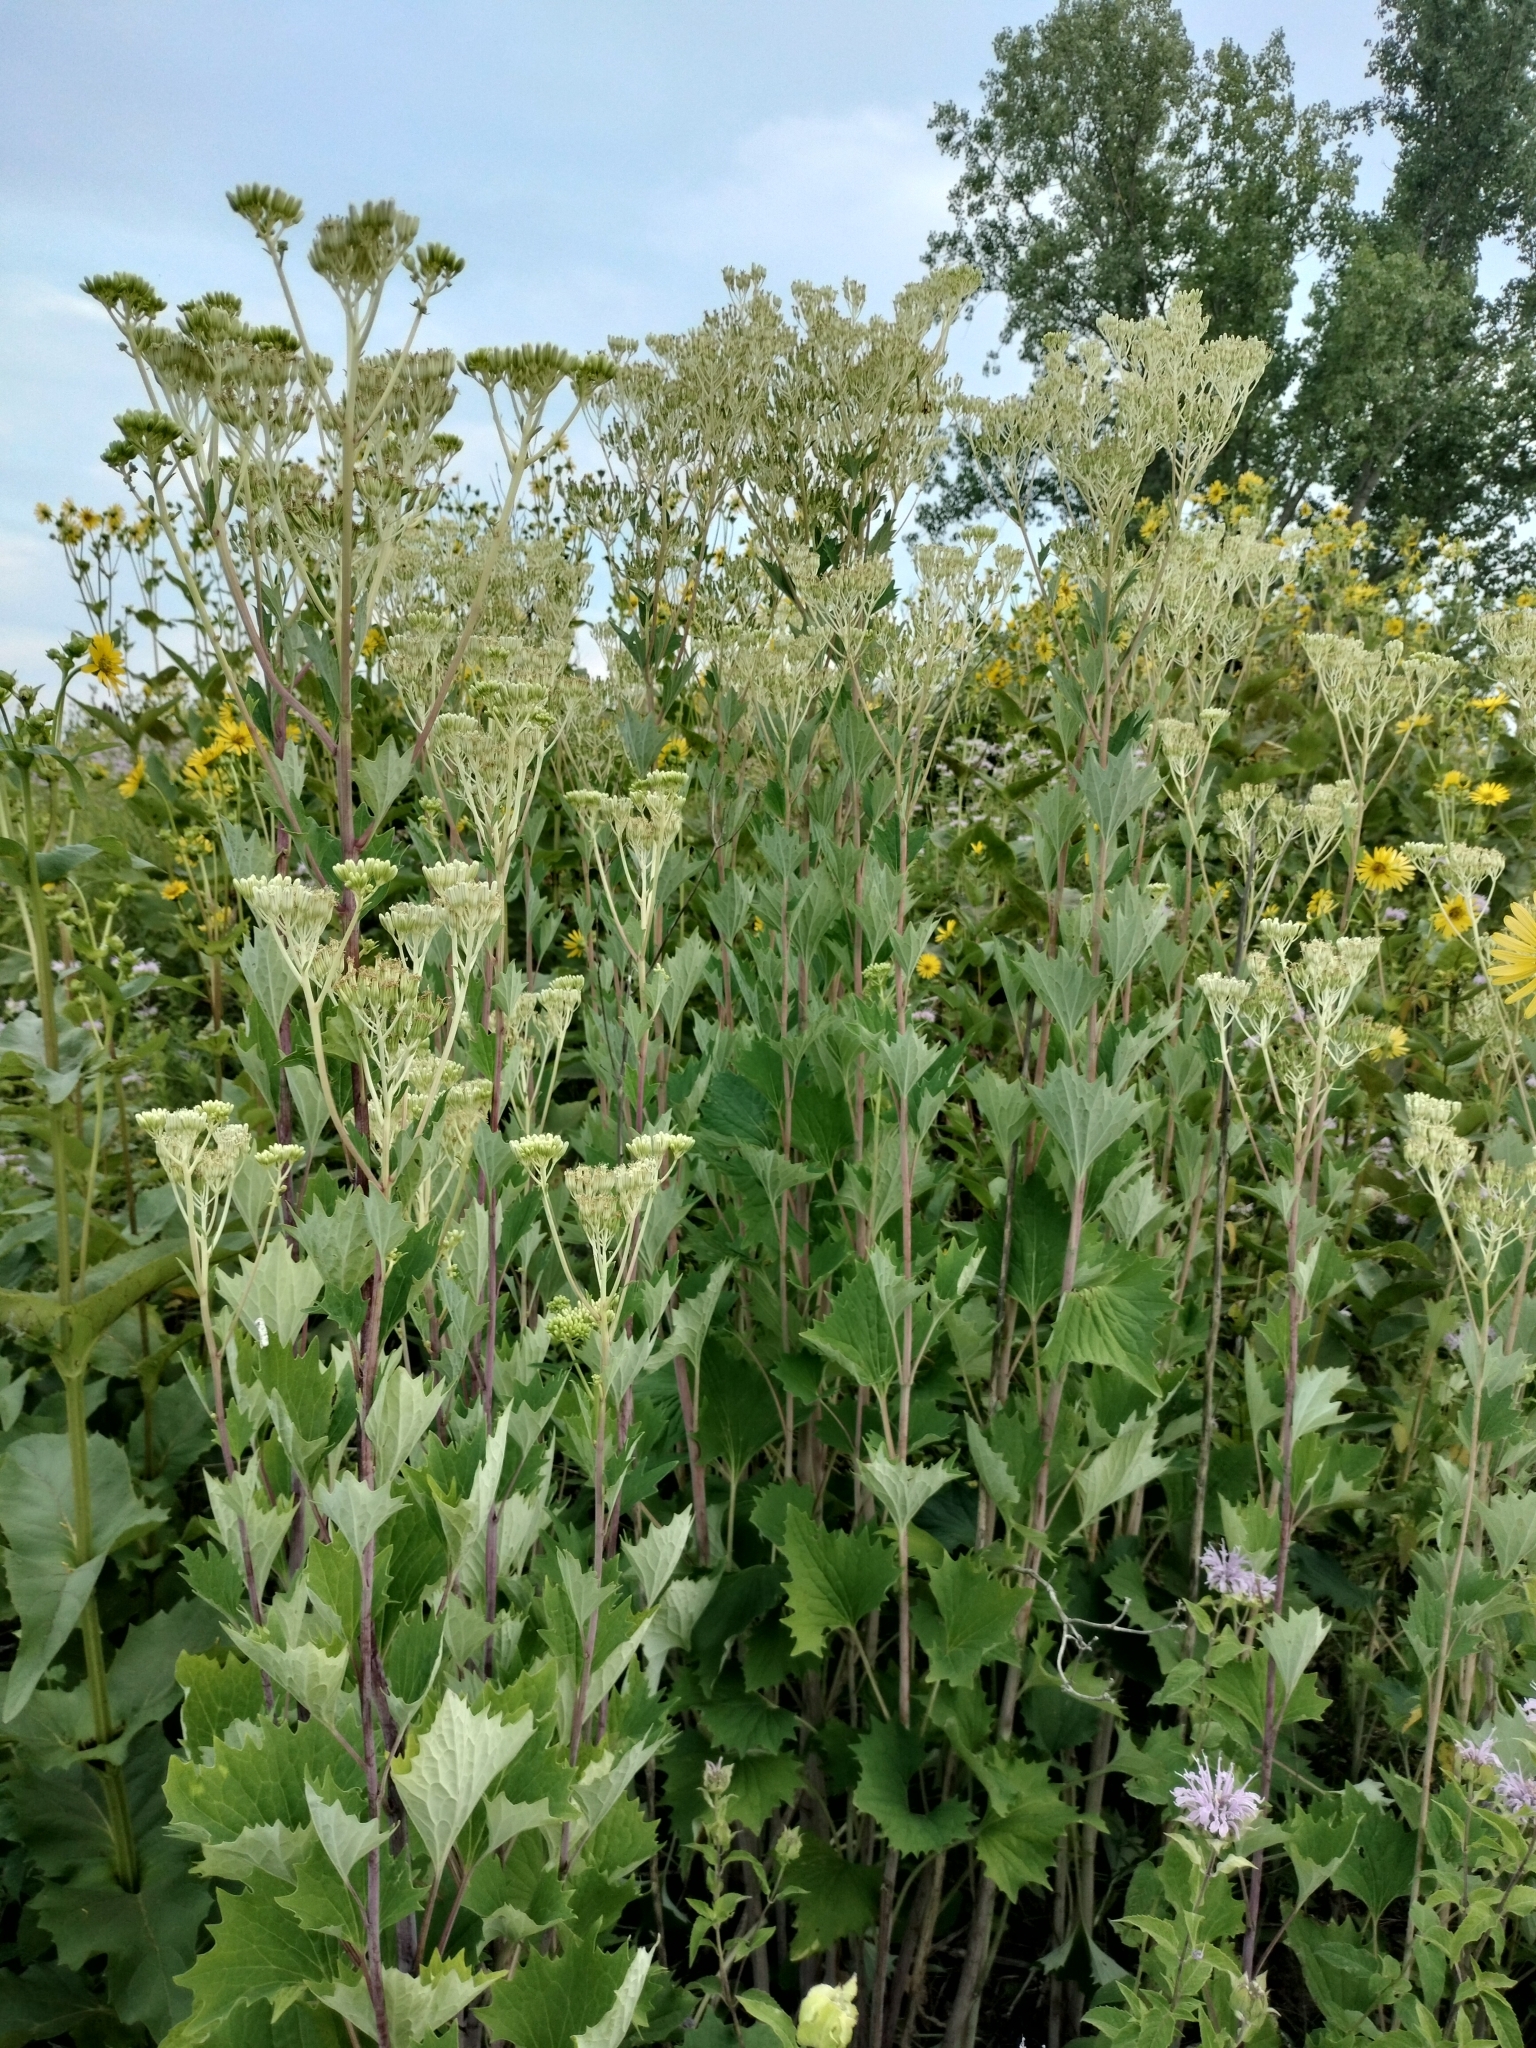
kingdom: Plantae
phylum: Tracheophyta
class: Magnoliopsida
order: Asterales
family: Asteraceae
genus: Arnoglossum
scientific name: Arnoglossum atriplicifolium
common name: Pale indian-plantain
